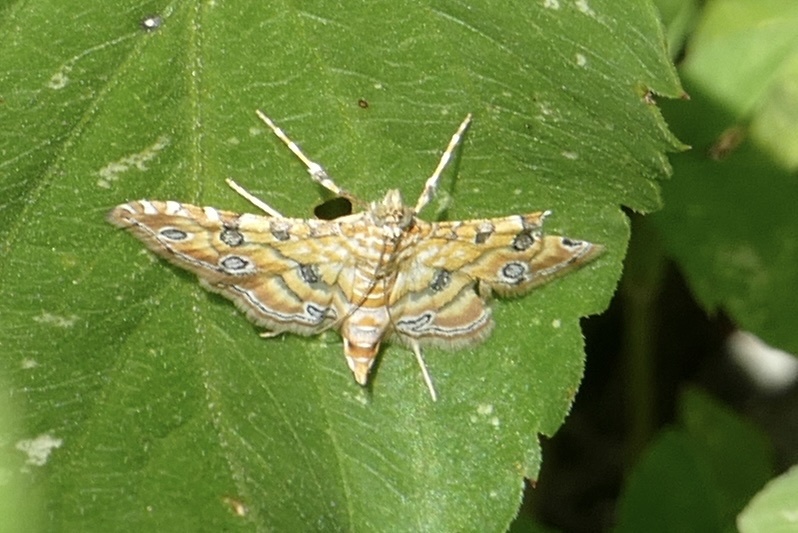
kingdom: Animalia
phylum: Arthropoda
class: Insecta
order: Lepidoptera
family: Crambidae
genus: Ommatospila
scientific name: Ommatospila narcaeusalis
